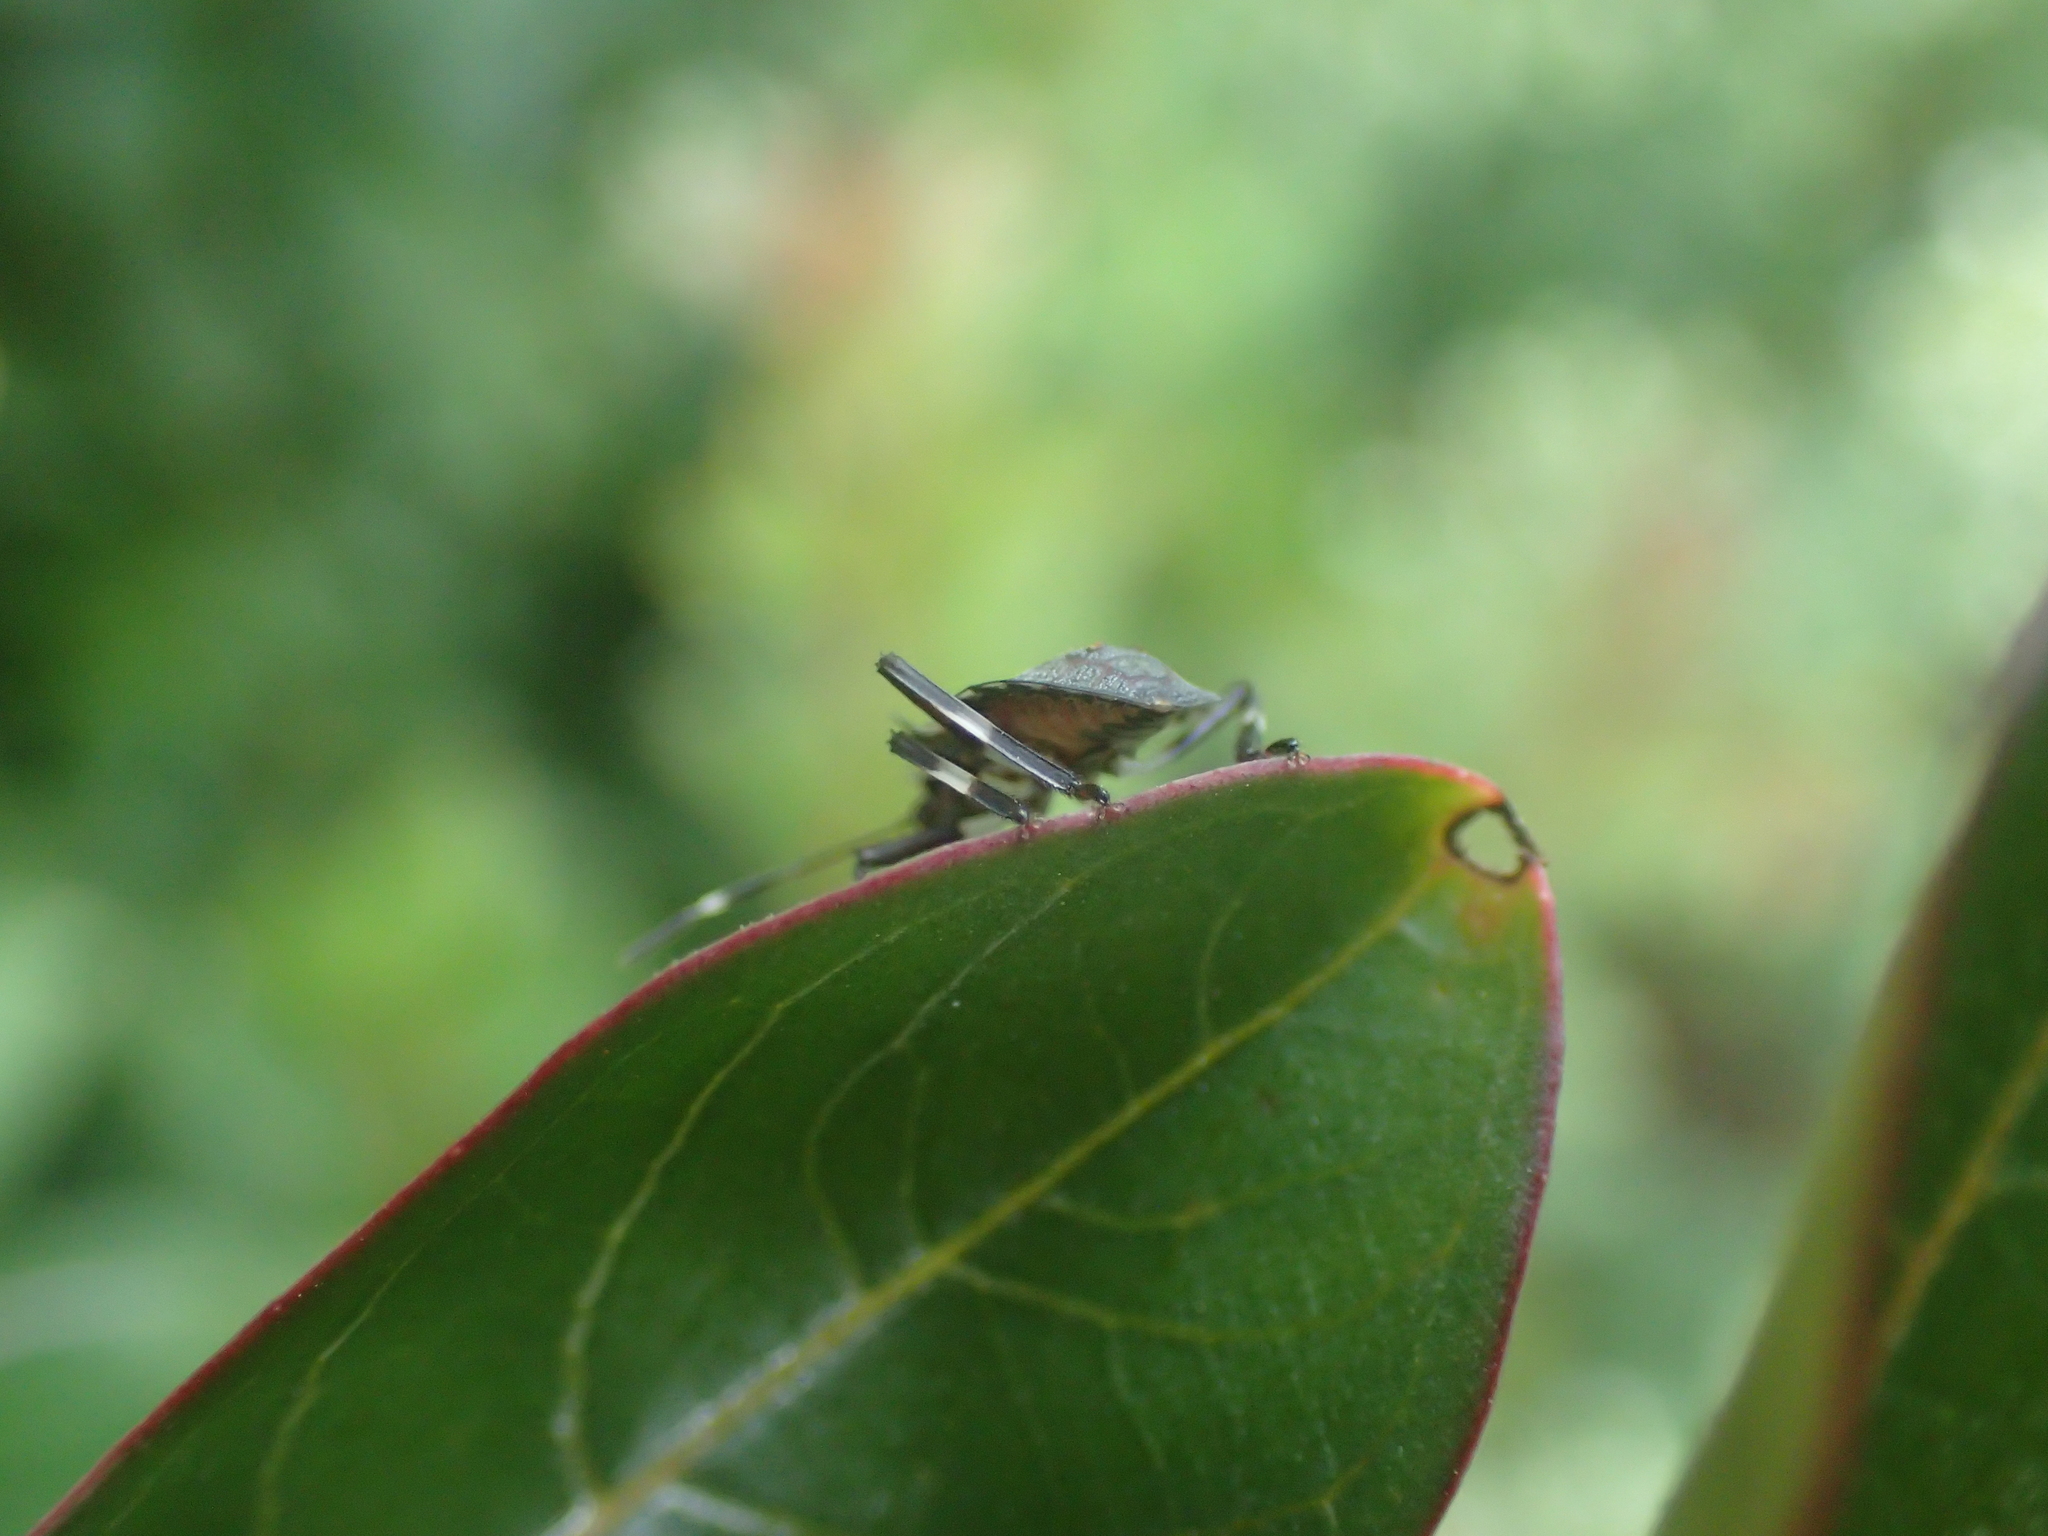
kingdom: Animalia
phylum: Arthropoda
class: Insecta
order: Hemiptera
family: Pentatomidae
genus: Halyomorpha
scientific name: Halyomorpha halys
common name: Brown marmorated stink bug
